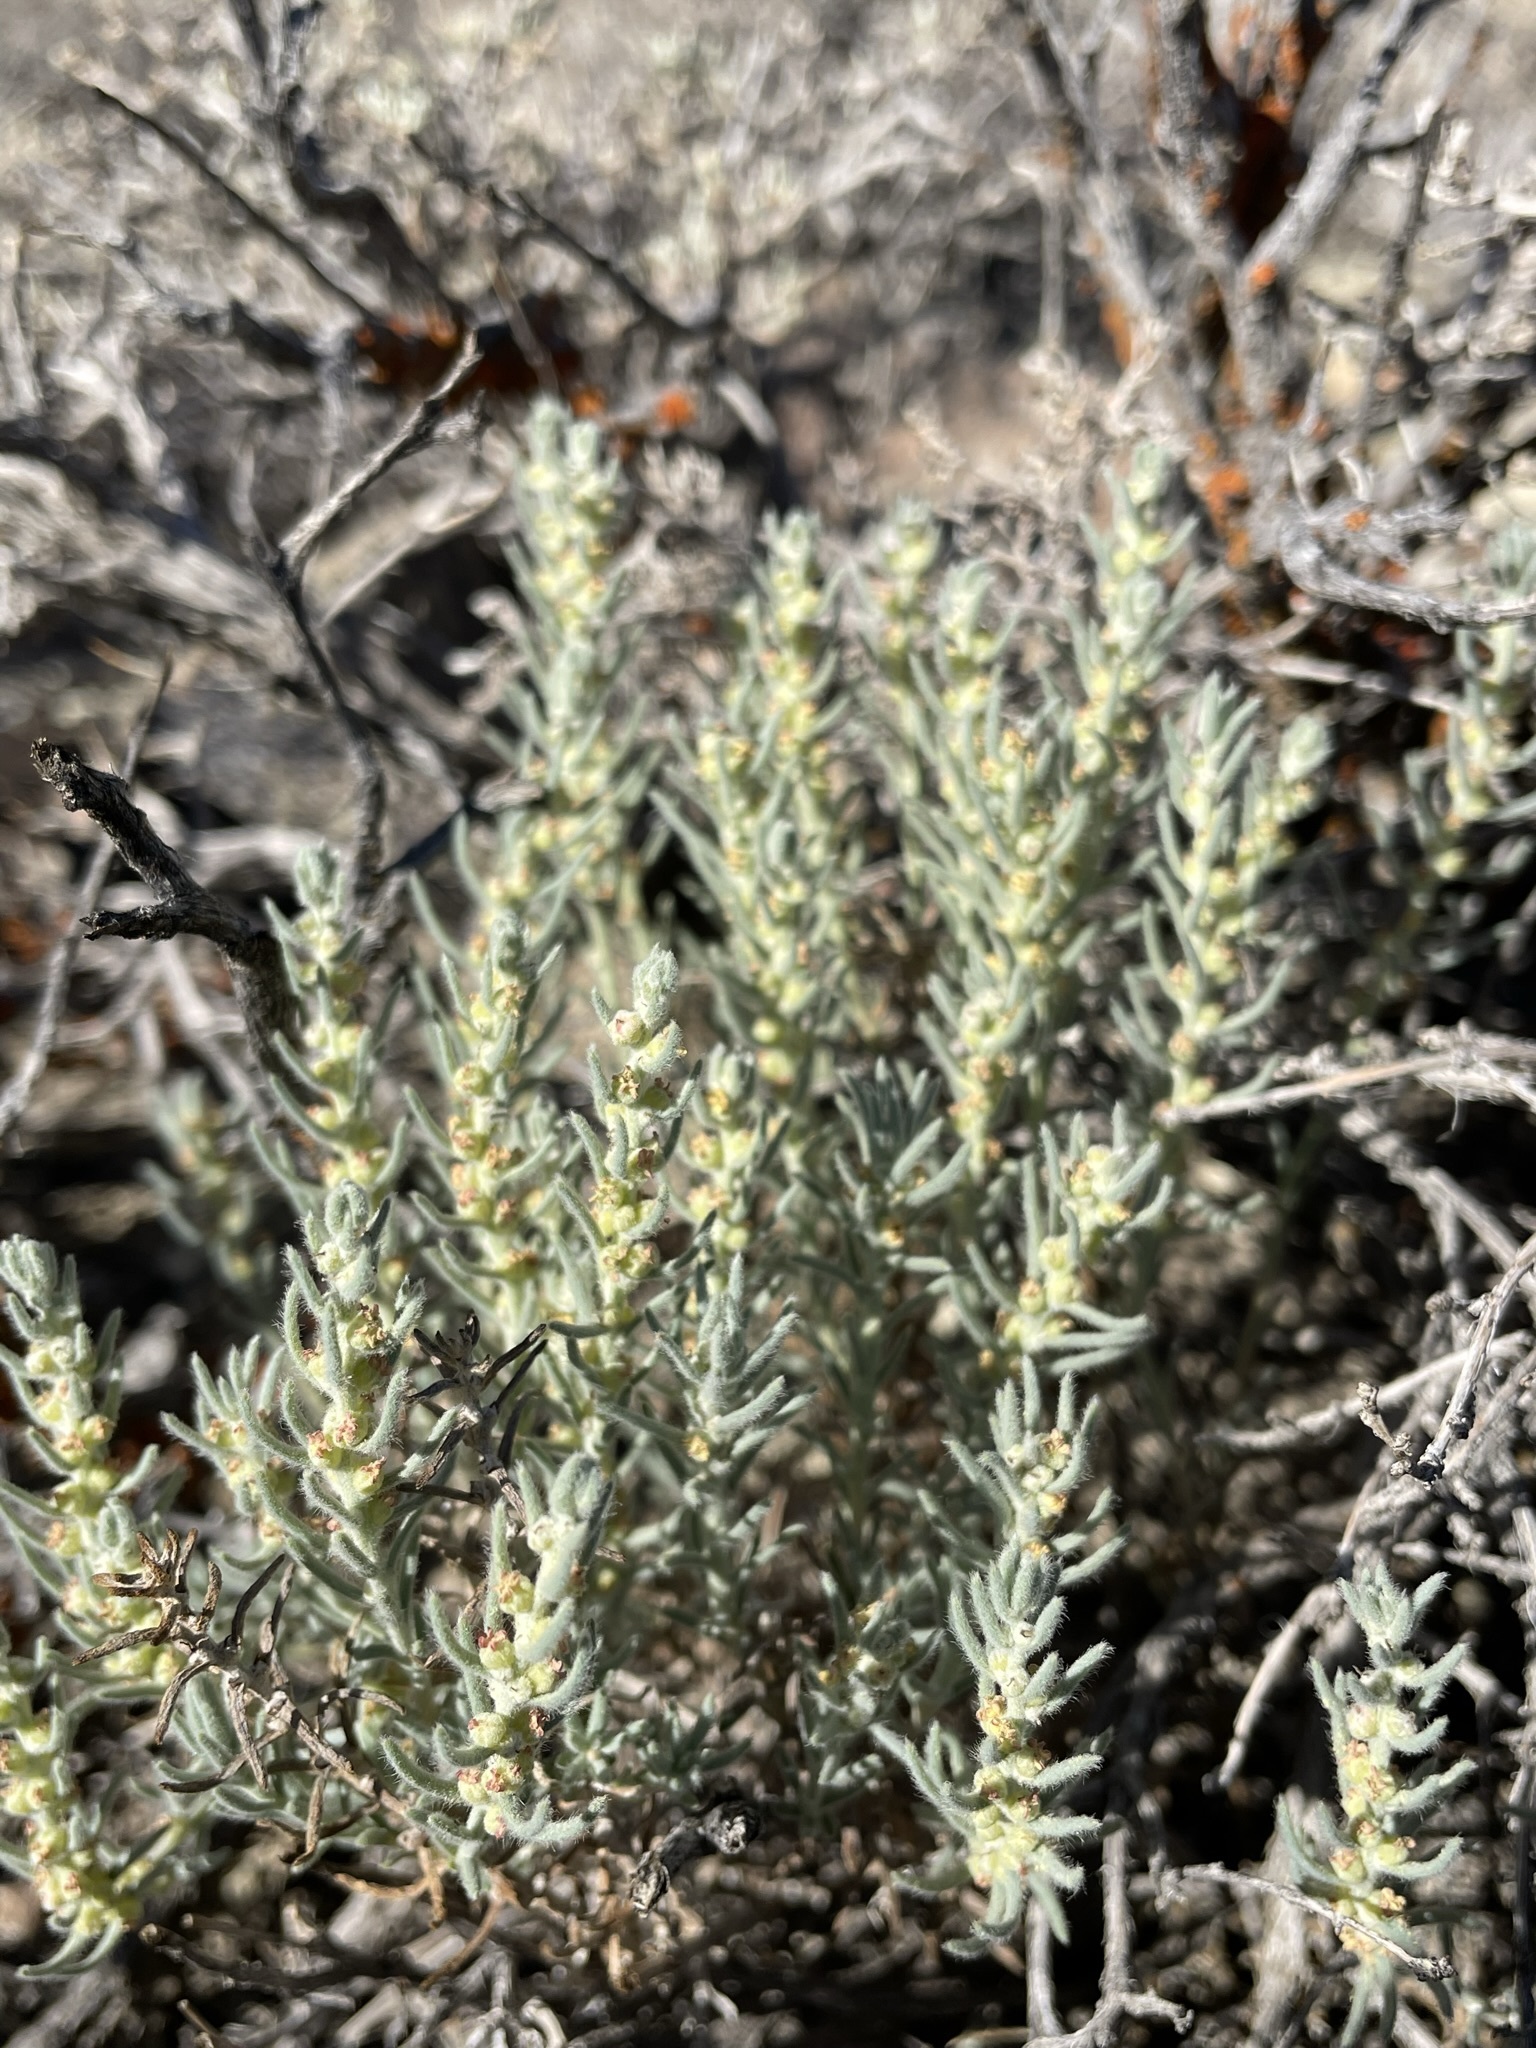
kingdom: Plantae
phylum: Tracheophyta
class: Magnoliopsida
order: Caryophyllales
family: Amaranthaceae
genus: Neokochia
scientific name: Neokochia americana
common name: Perennial summer-cypress
